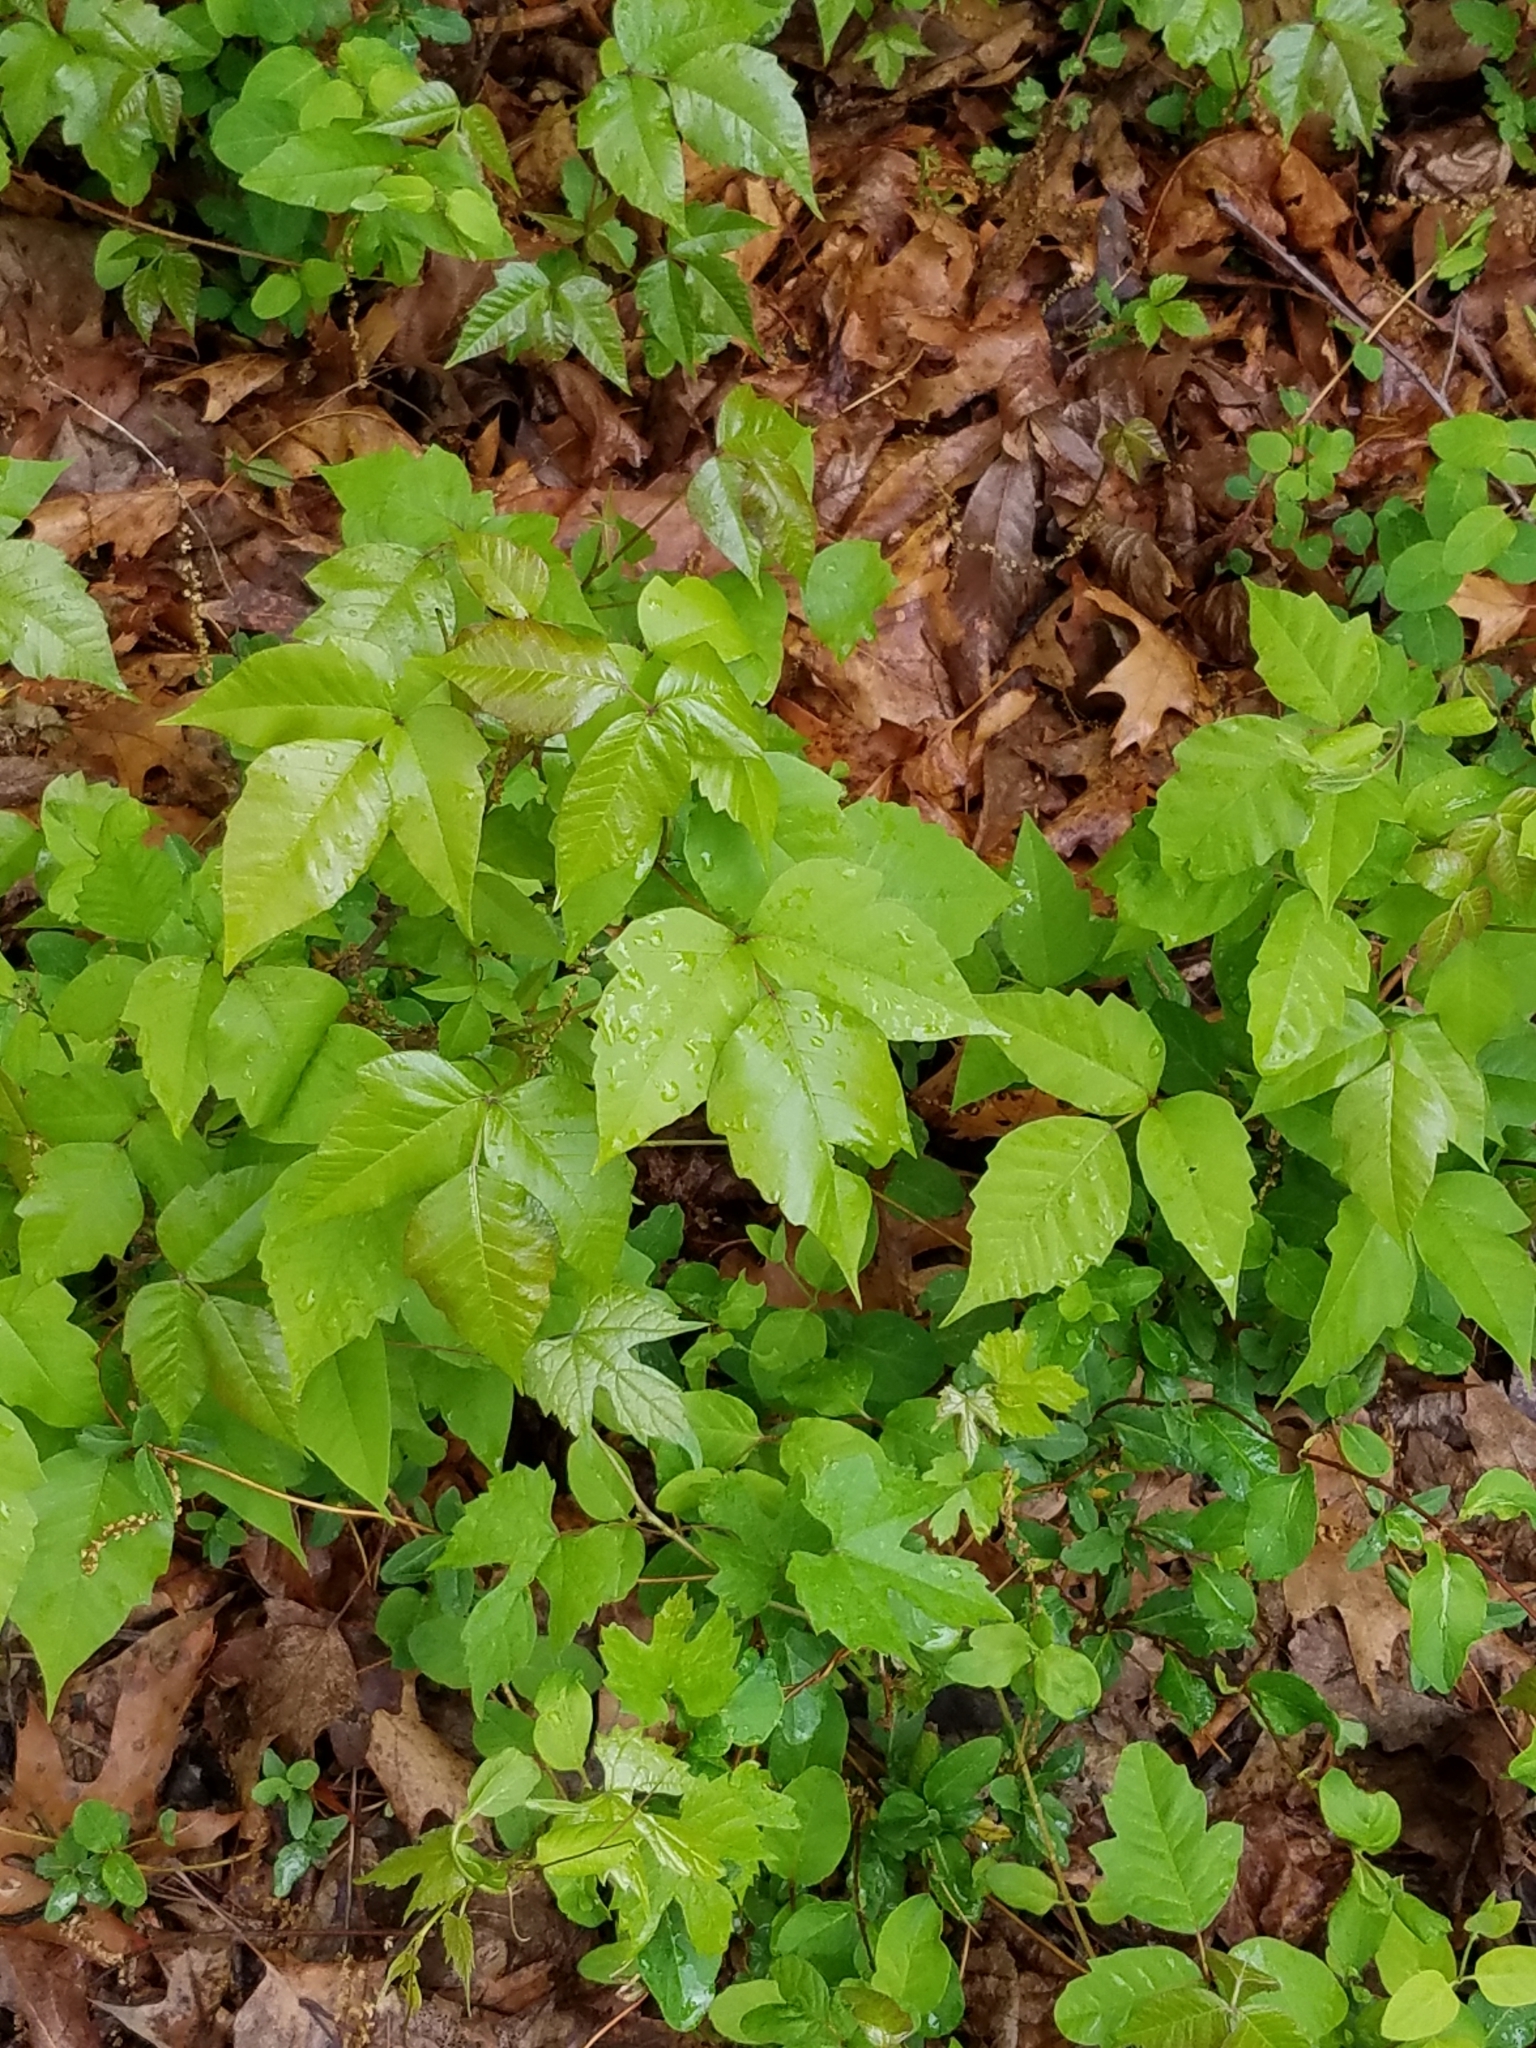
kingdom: Plantae
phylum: Tracheophyta
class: Magnoliopsida
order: Sapindales
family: Anacardiaceae
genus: Toxicodendron
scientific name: Toxicodendron radicans
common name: Poison ivy
